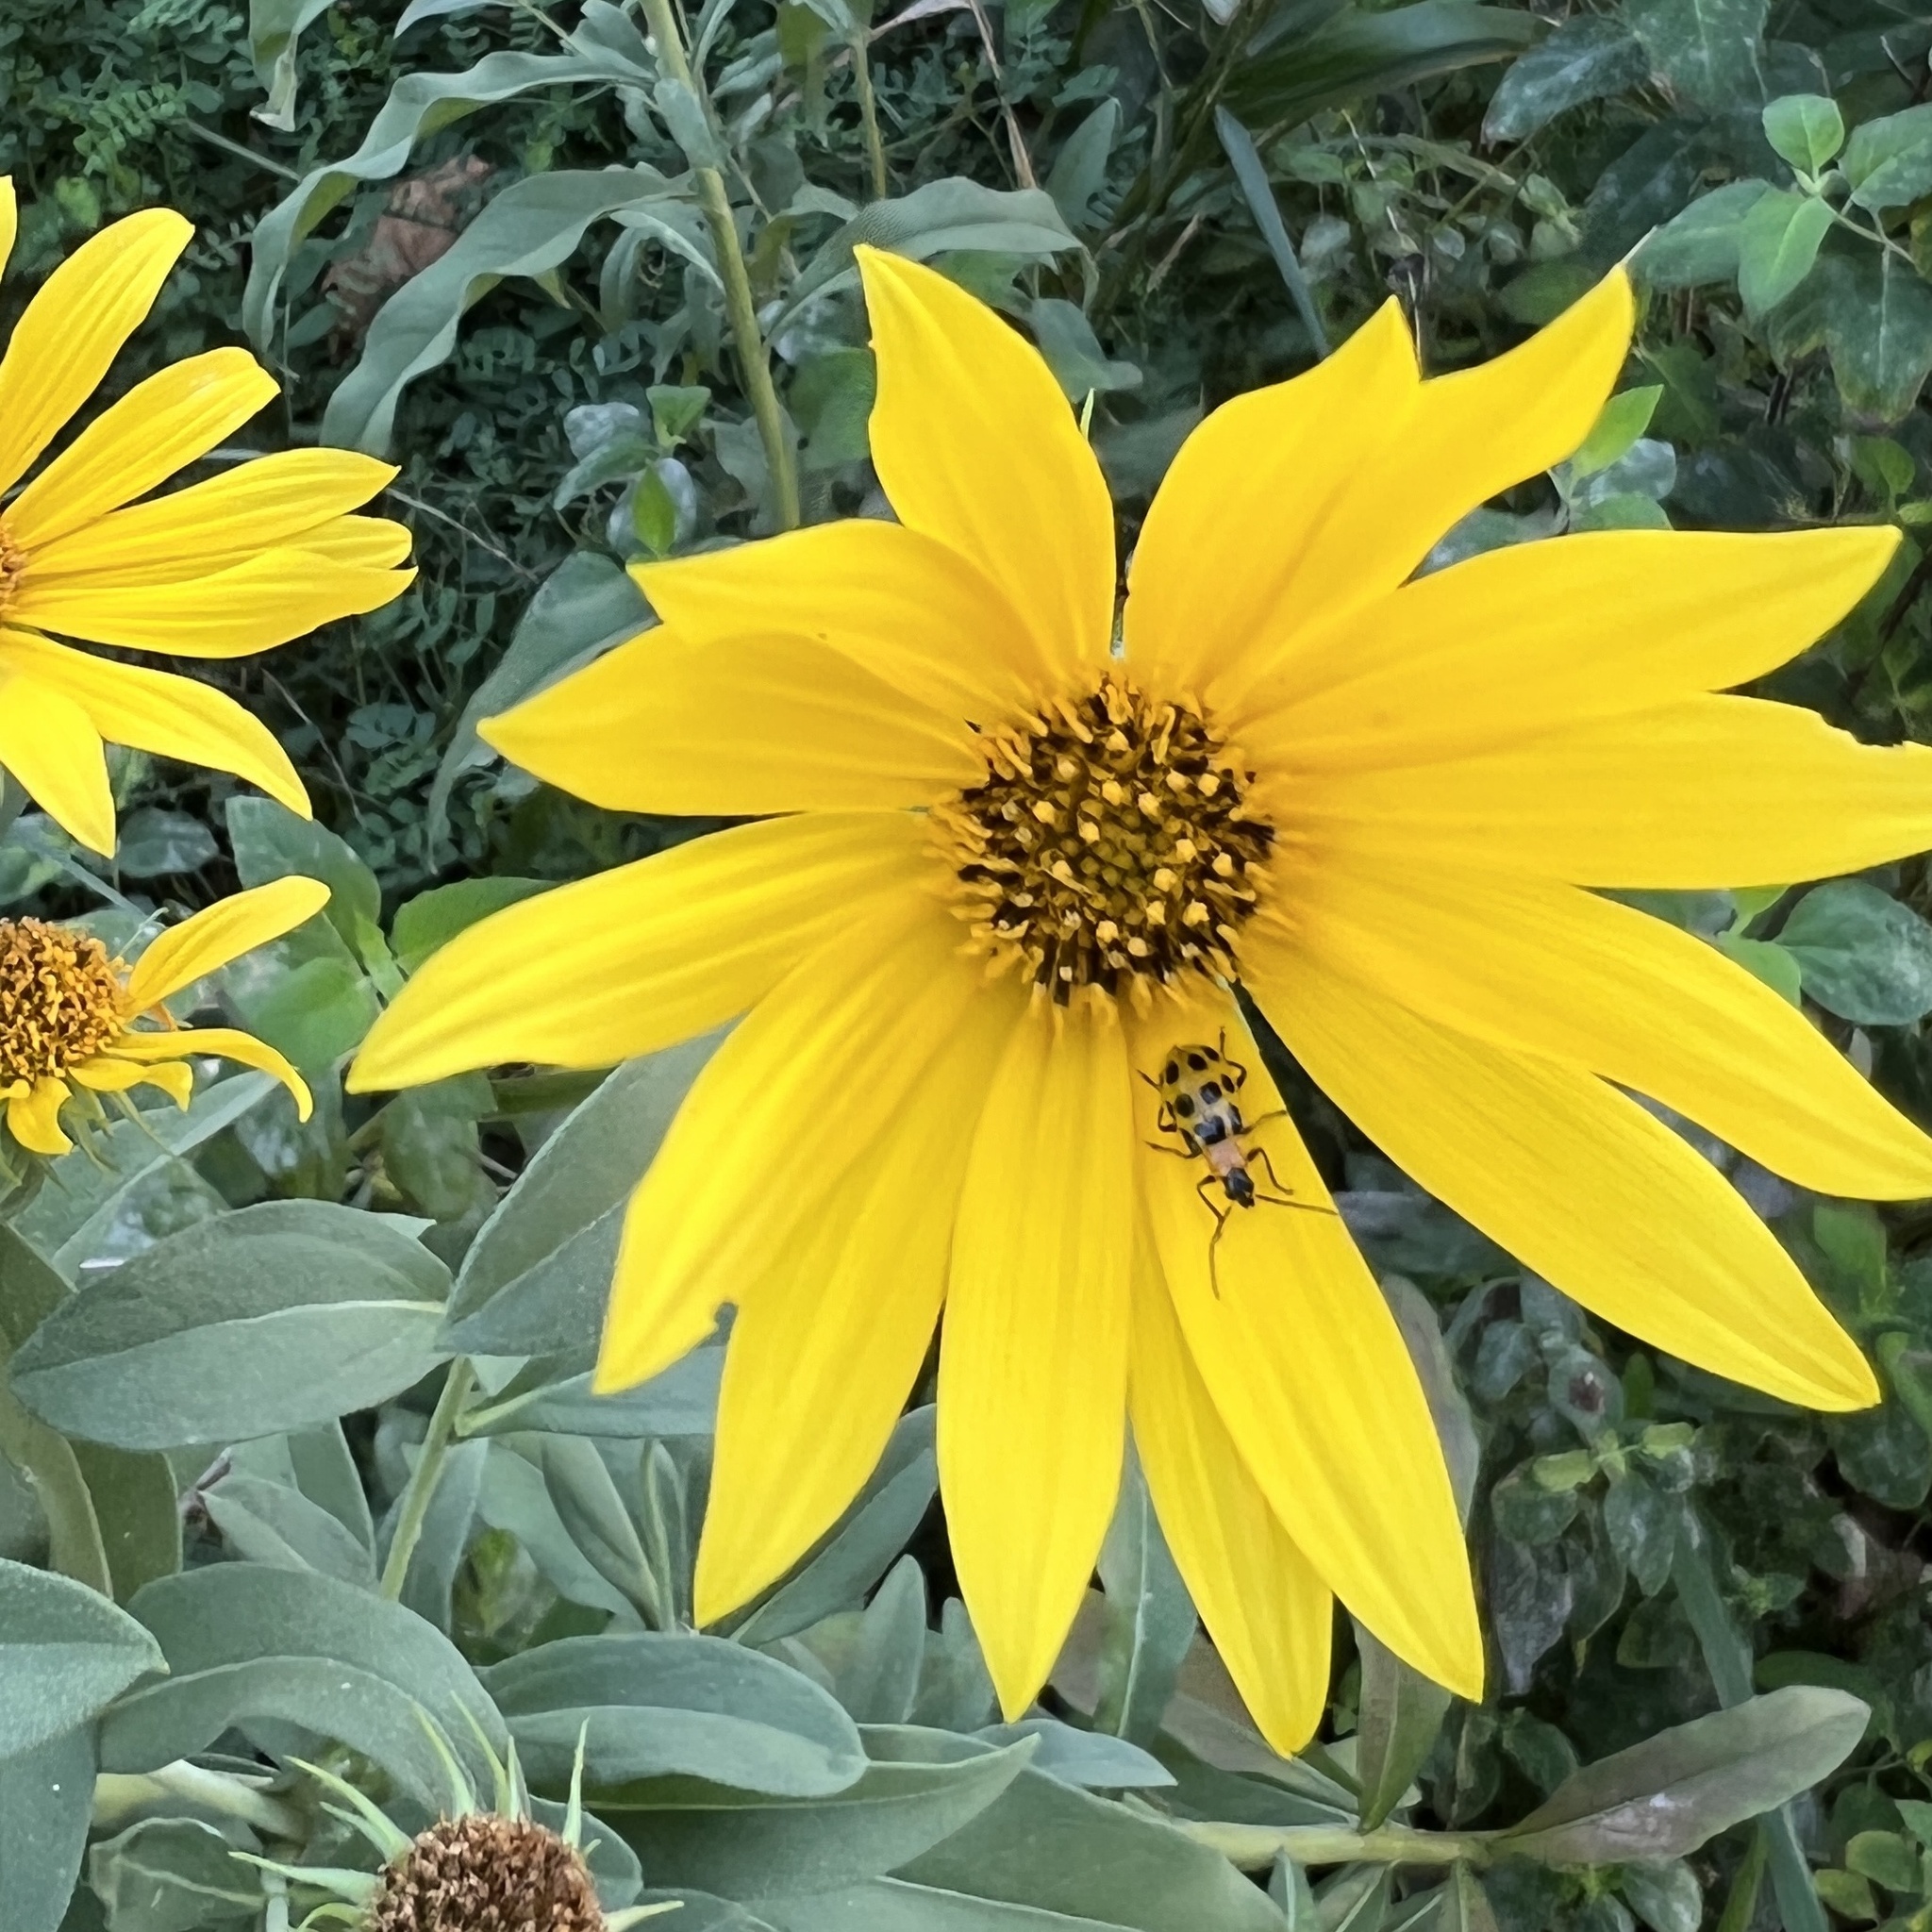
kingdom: Animalia
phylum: Arthropoda
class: Insecta
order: Coleoptera
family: Chrysomelidae
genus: Diabrotica
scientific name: Diabrotica undecimpunctata
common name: Spotted cucumber beetle
